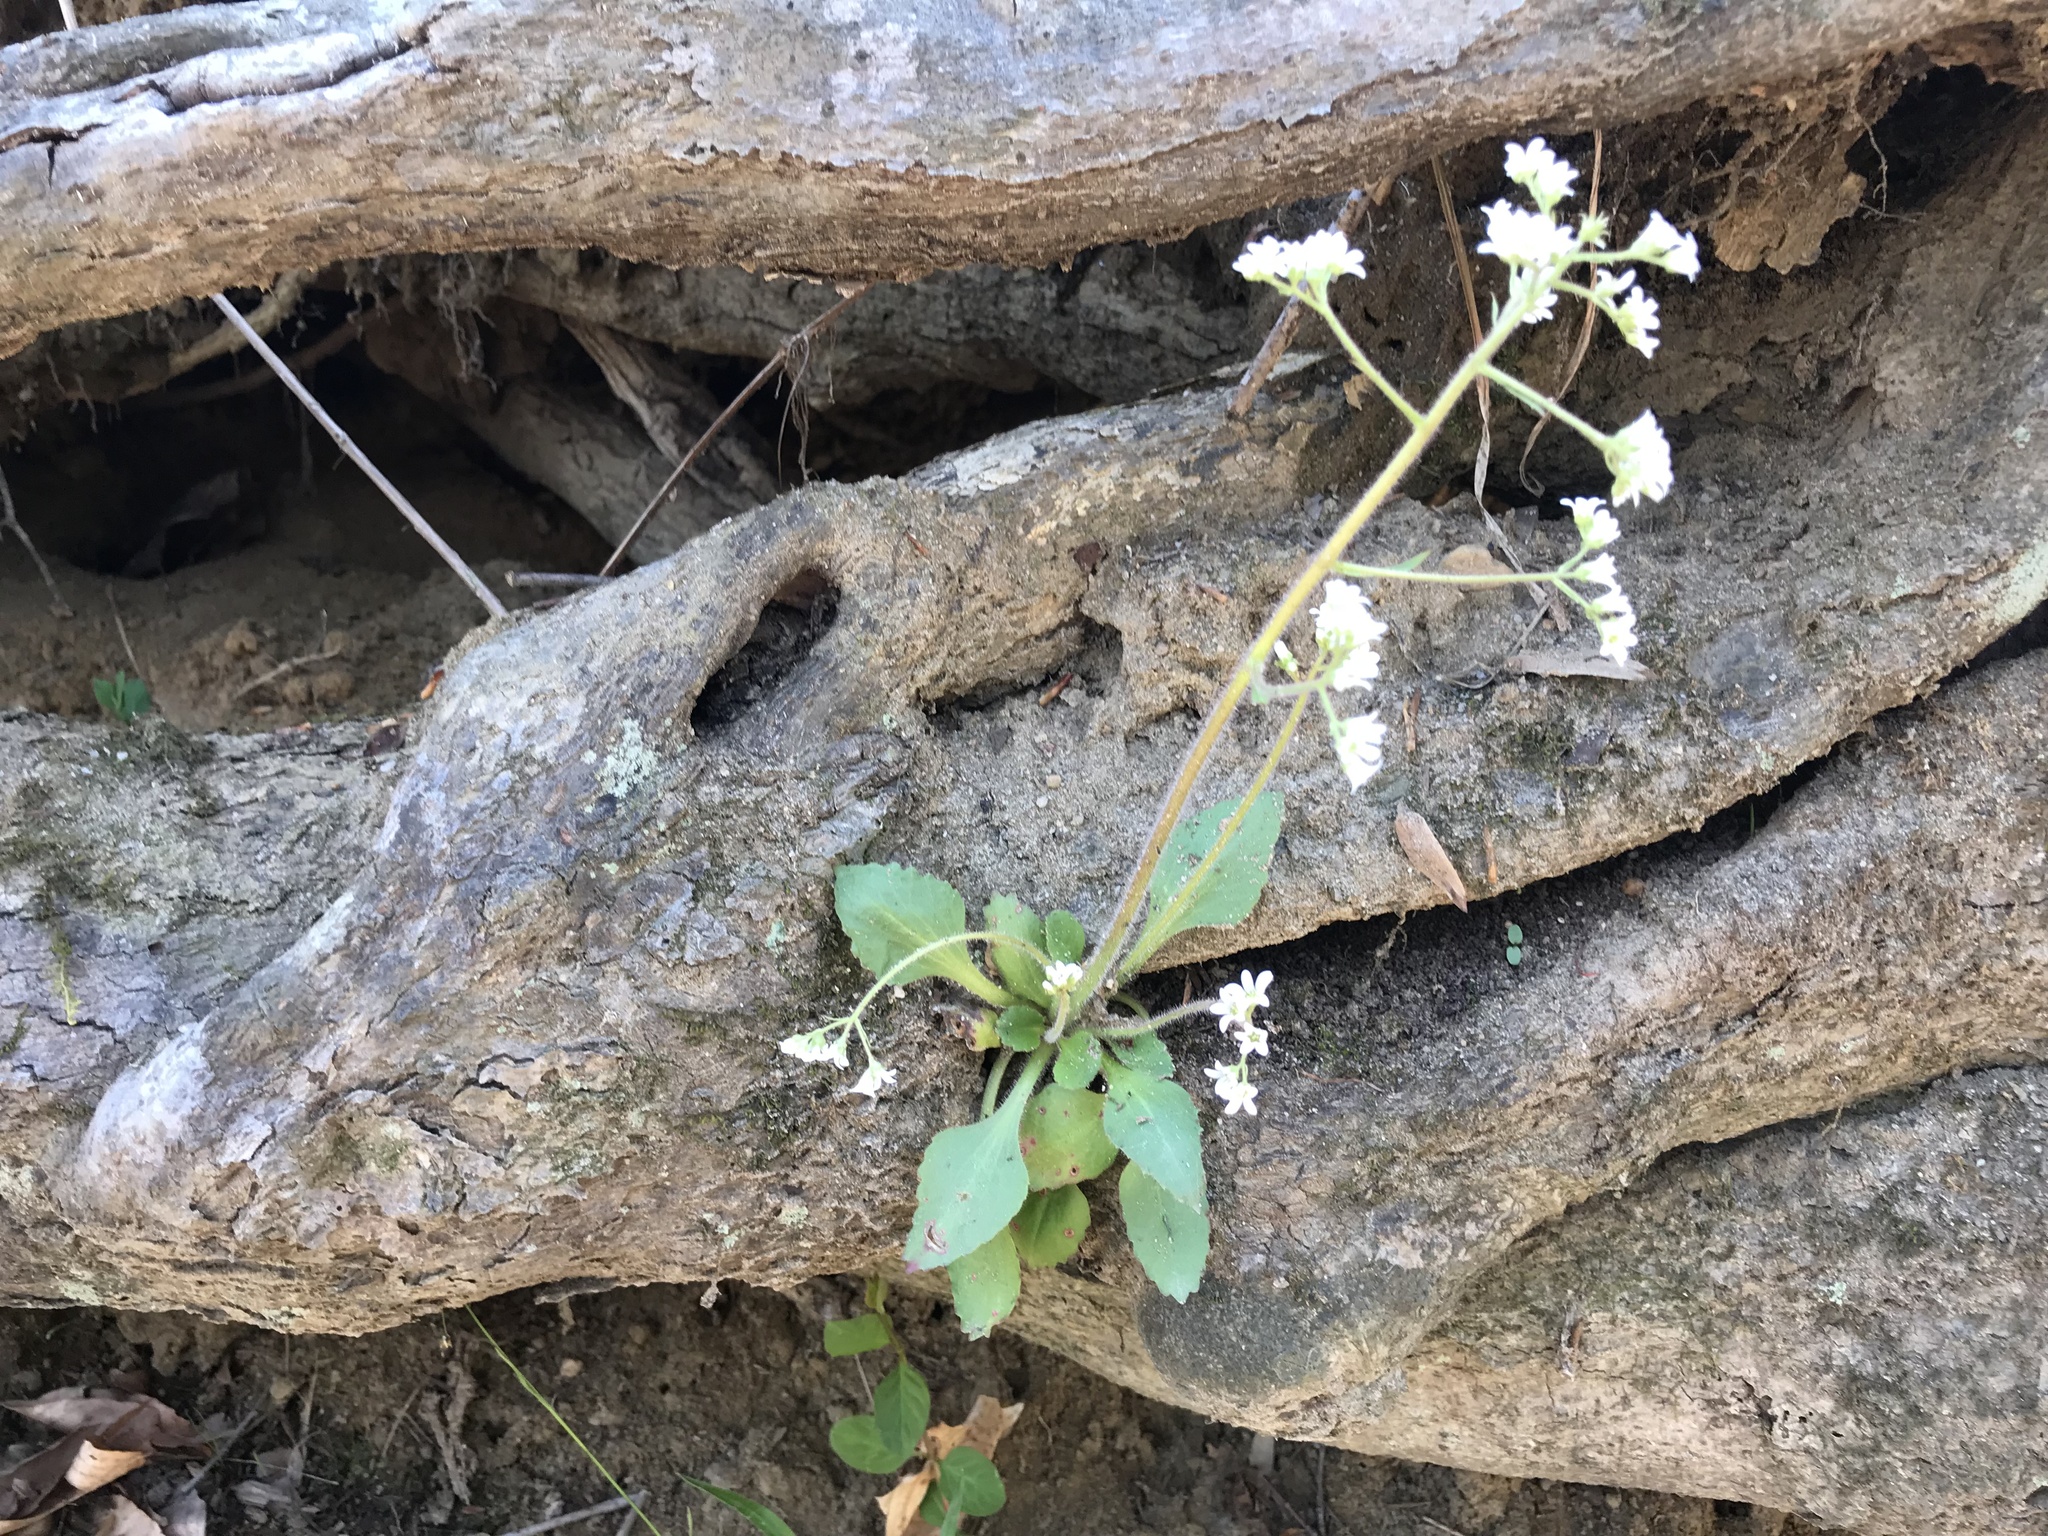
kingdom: Plantae
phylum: Tracheophyta
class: Magnoliopsida
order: Saxifragales
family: Saxifragaceae
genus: Micranthes
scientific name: Micranthes virginiensis
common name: Early saxifrage
